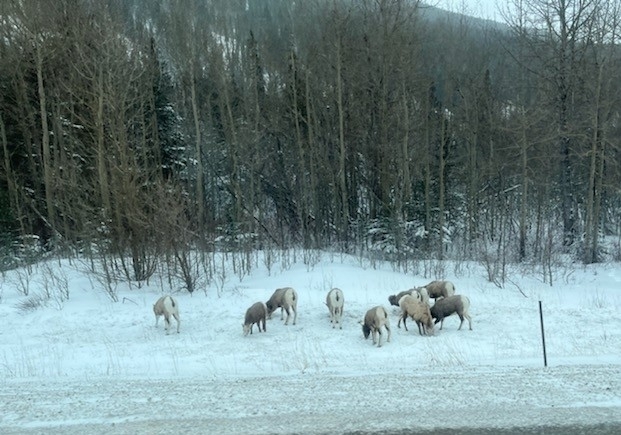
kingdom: Animalia
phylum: Chordata
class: Mammalia
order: Artiodactyla
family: Bovidae
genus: Ovis
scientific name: Ovis canadensis
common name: Bighorn sheep
